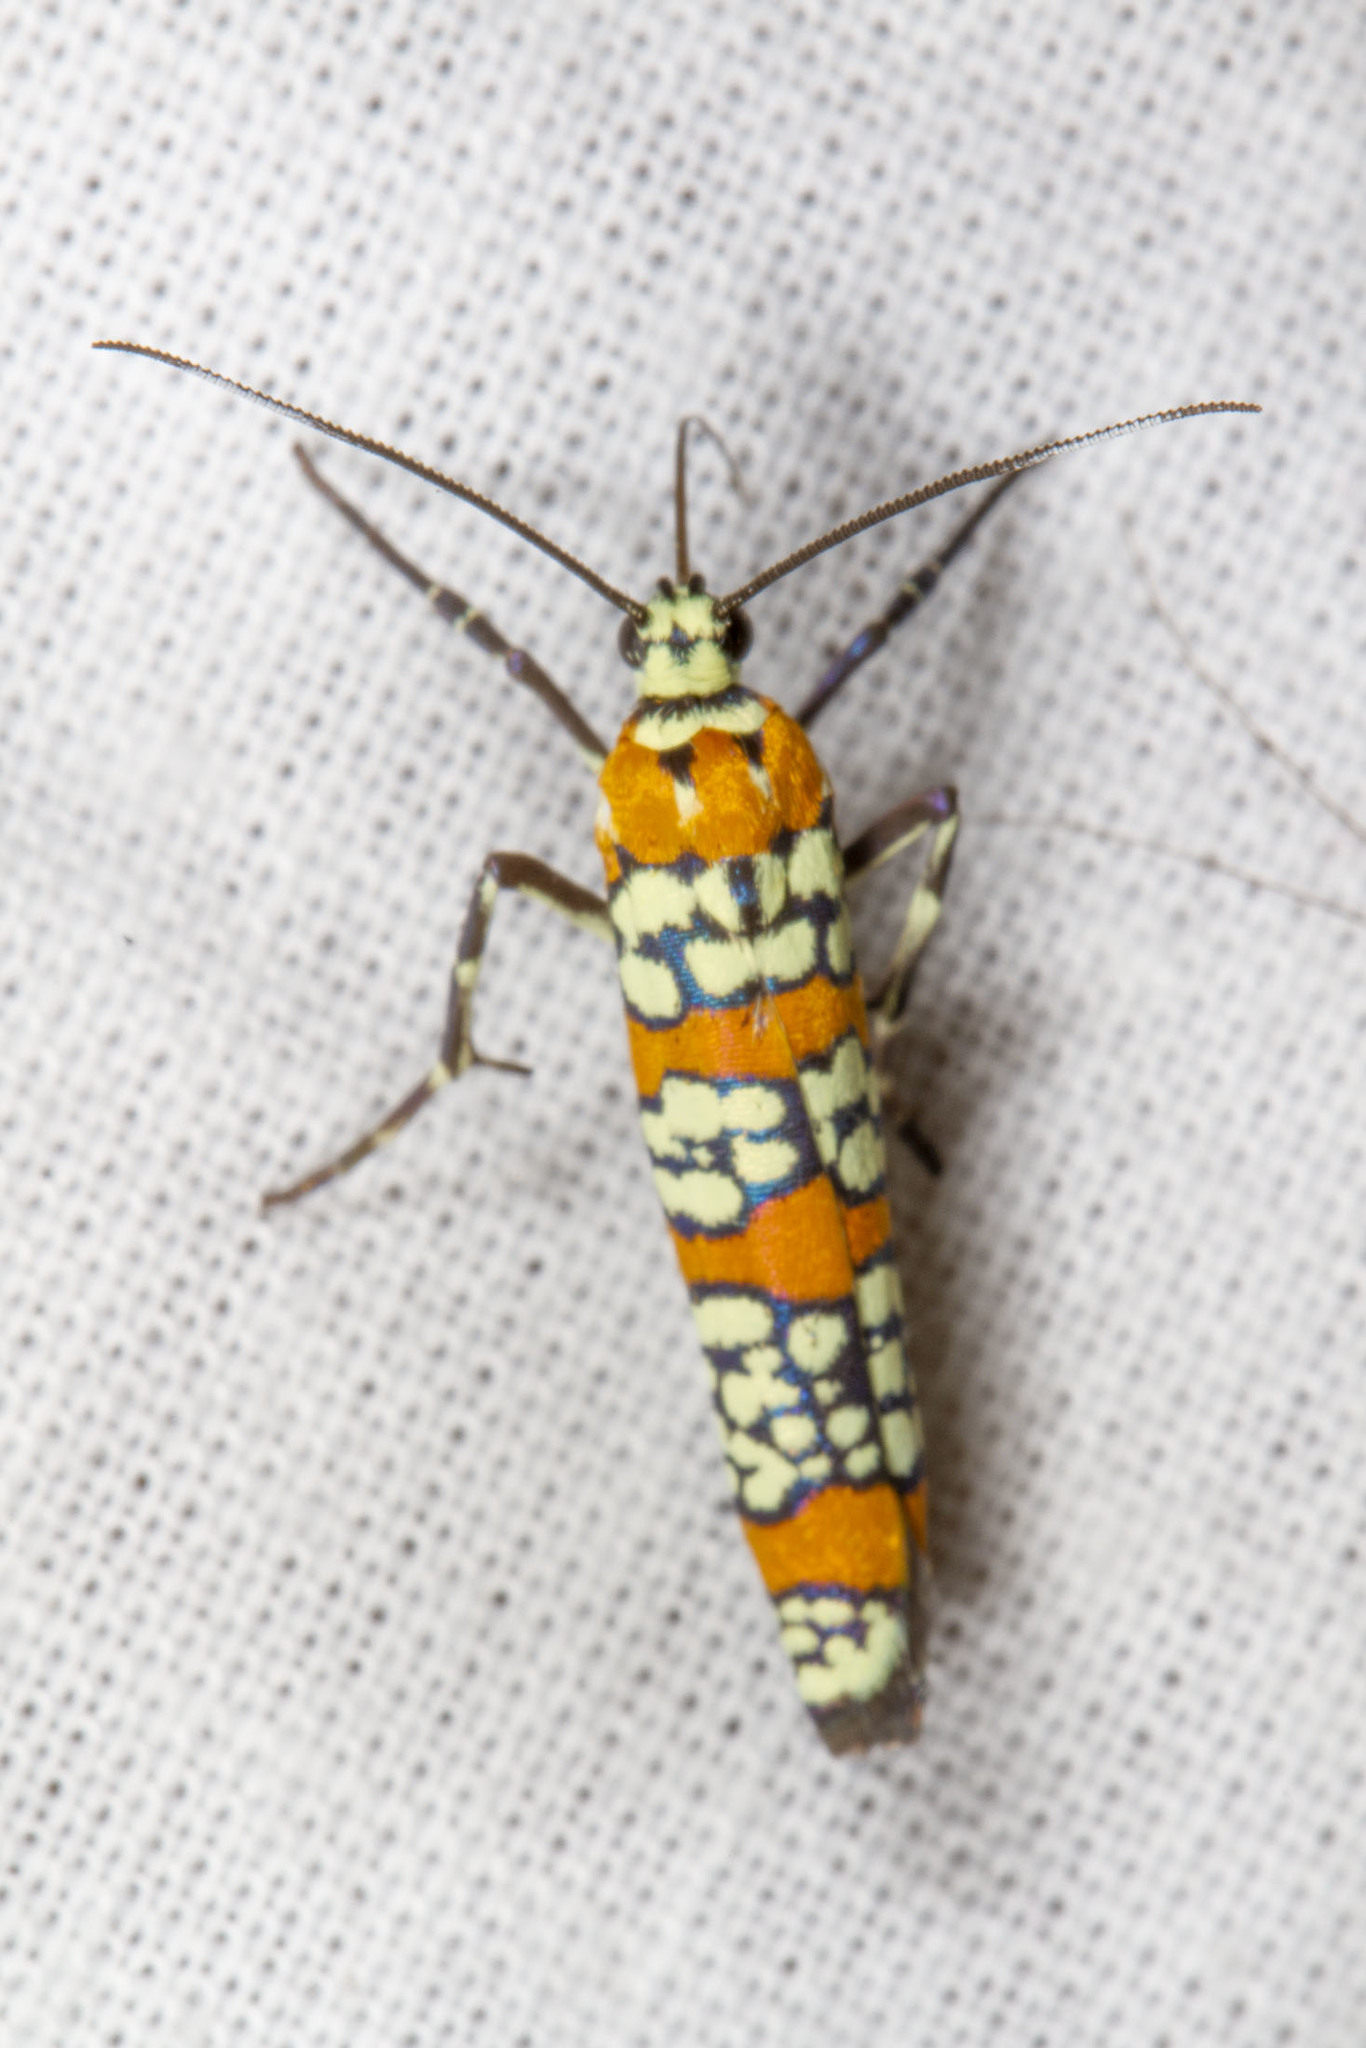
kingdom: Animalia
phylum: Arthropoda
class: Insecta
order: Lepidoptera
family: Attevidae
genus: Atteva
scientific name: Atteva punctella
